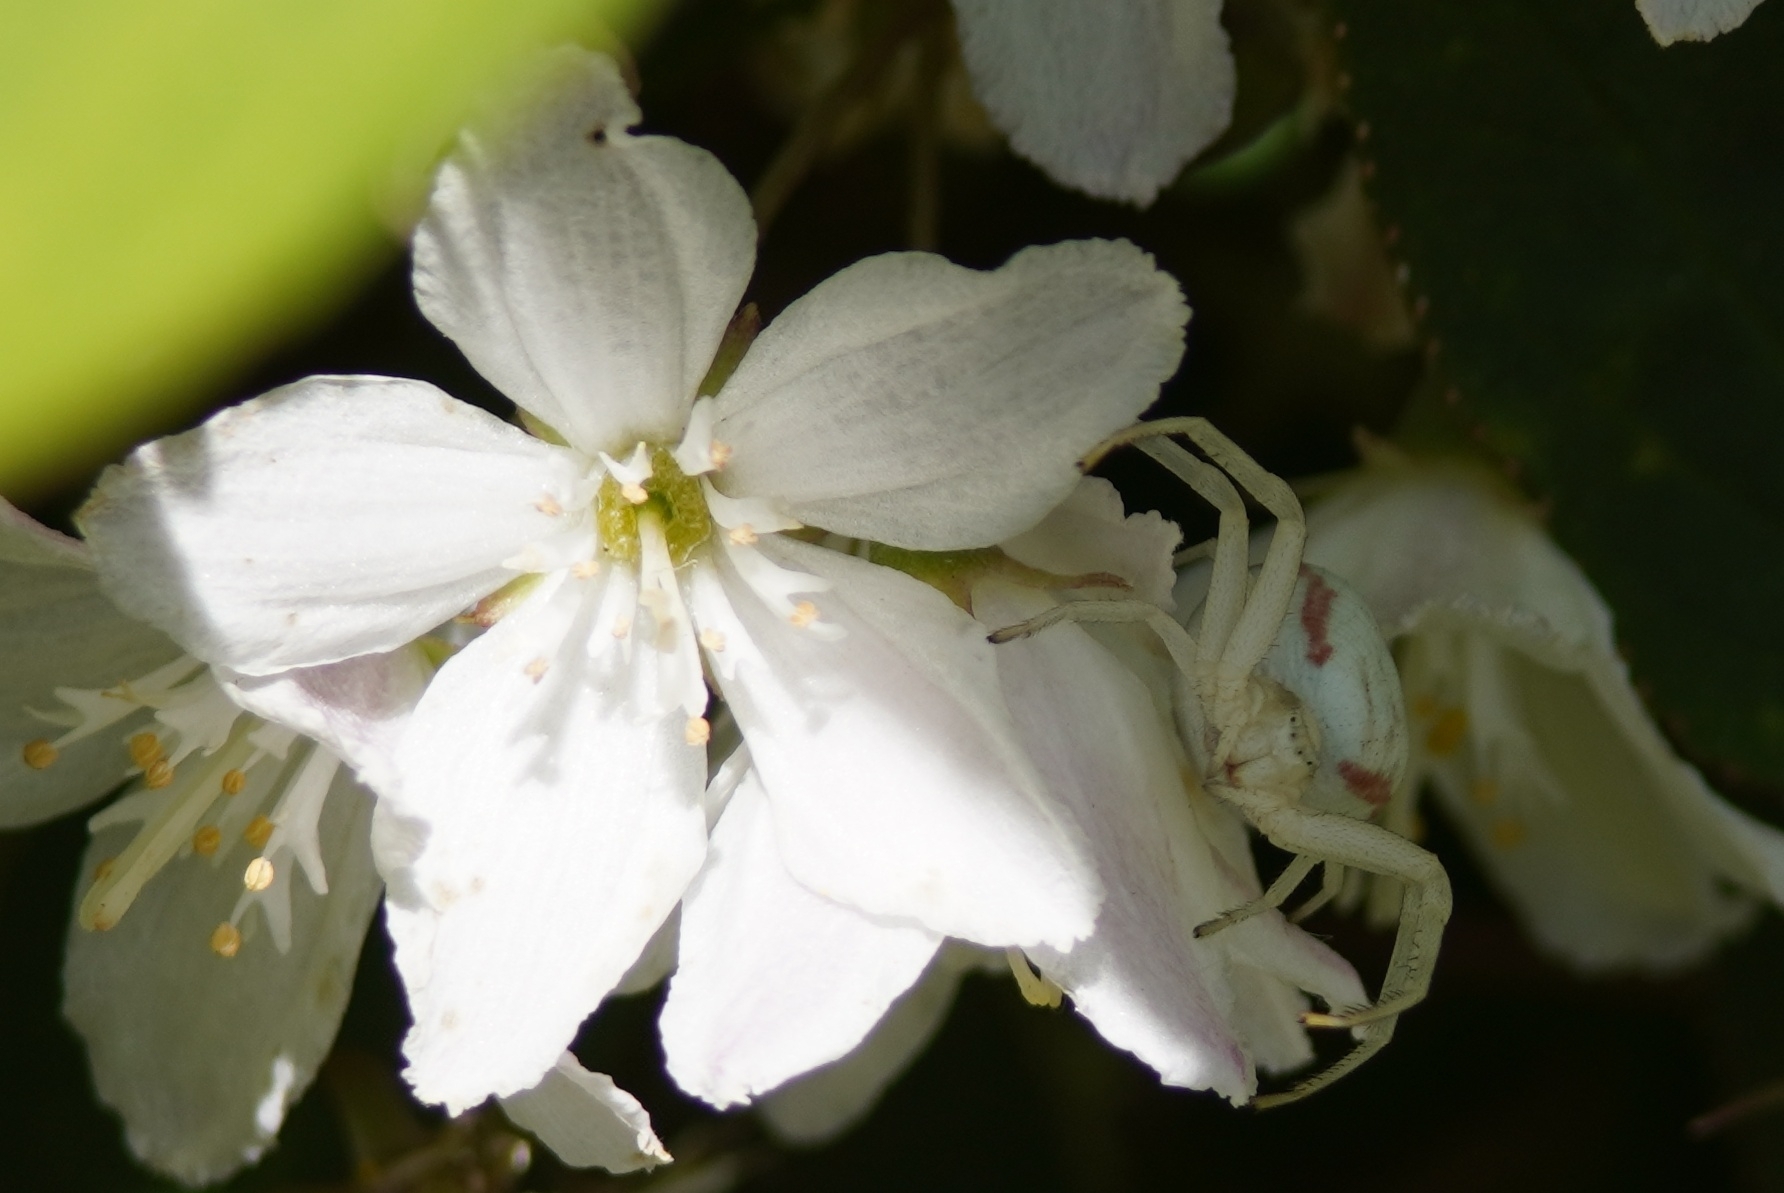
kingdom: Animalia
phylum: Arthropoda
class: Arachnida
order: Araneae
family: Thomisidae
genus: Misumena
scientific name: Misumena vatia
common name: Goldenrod crab spider
